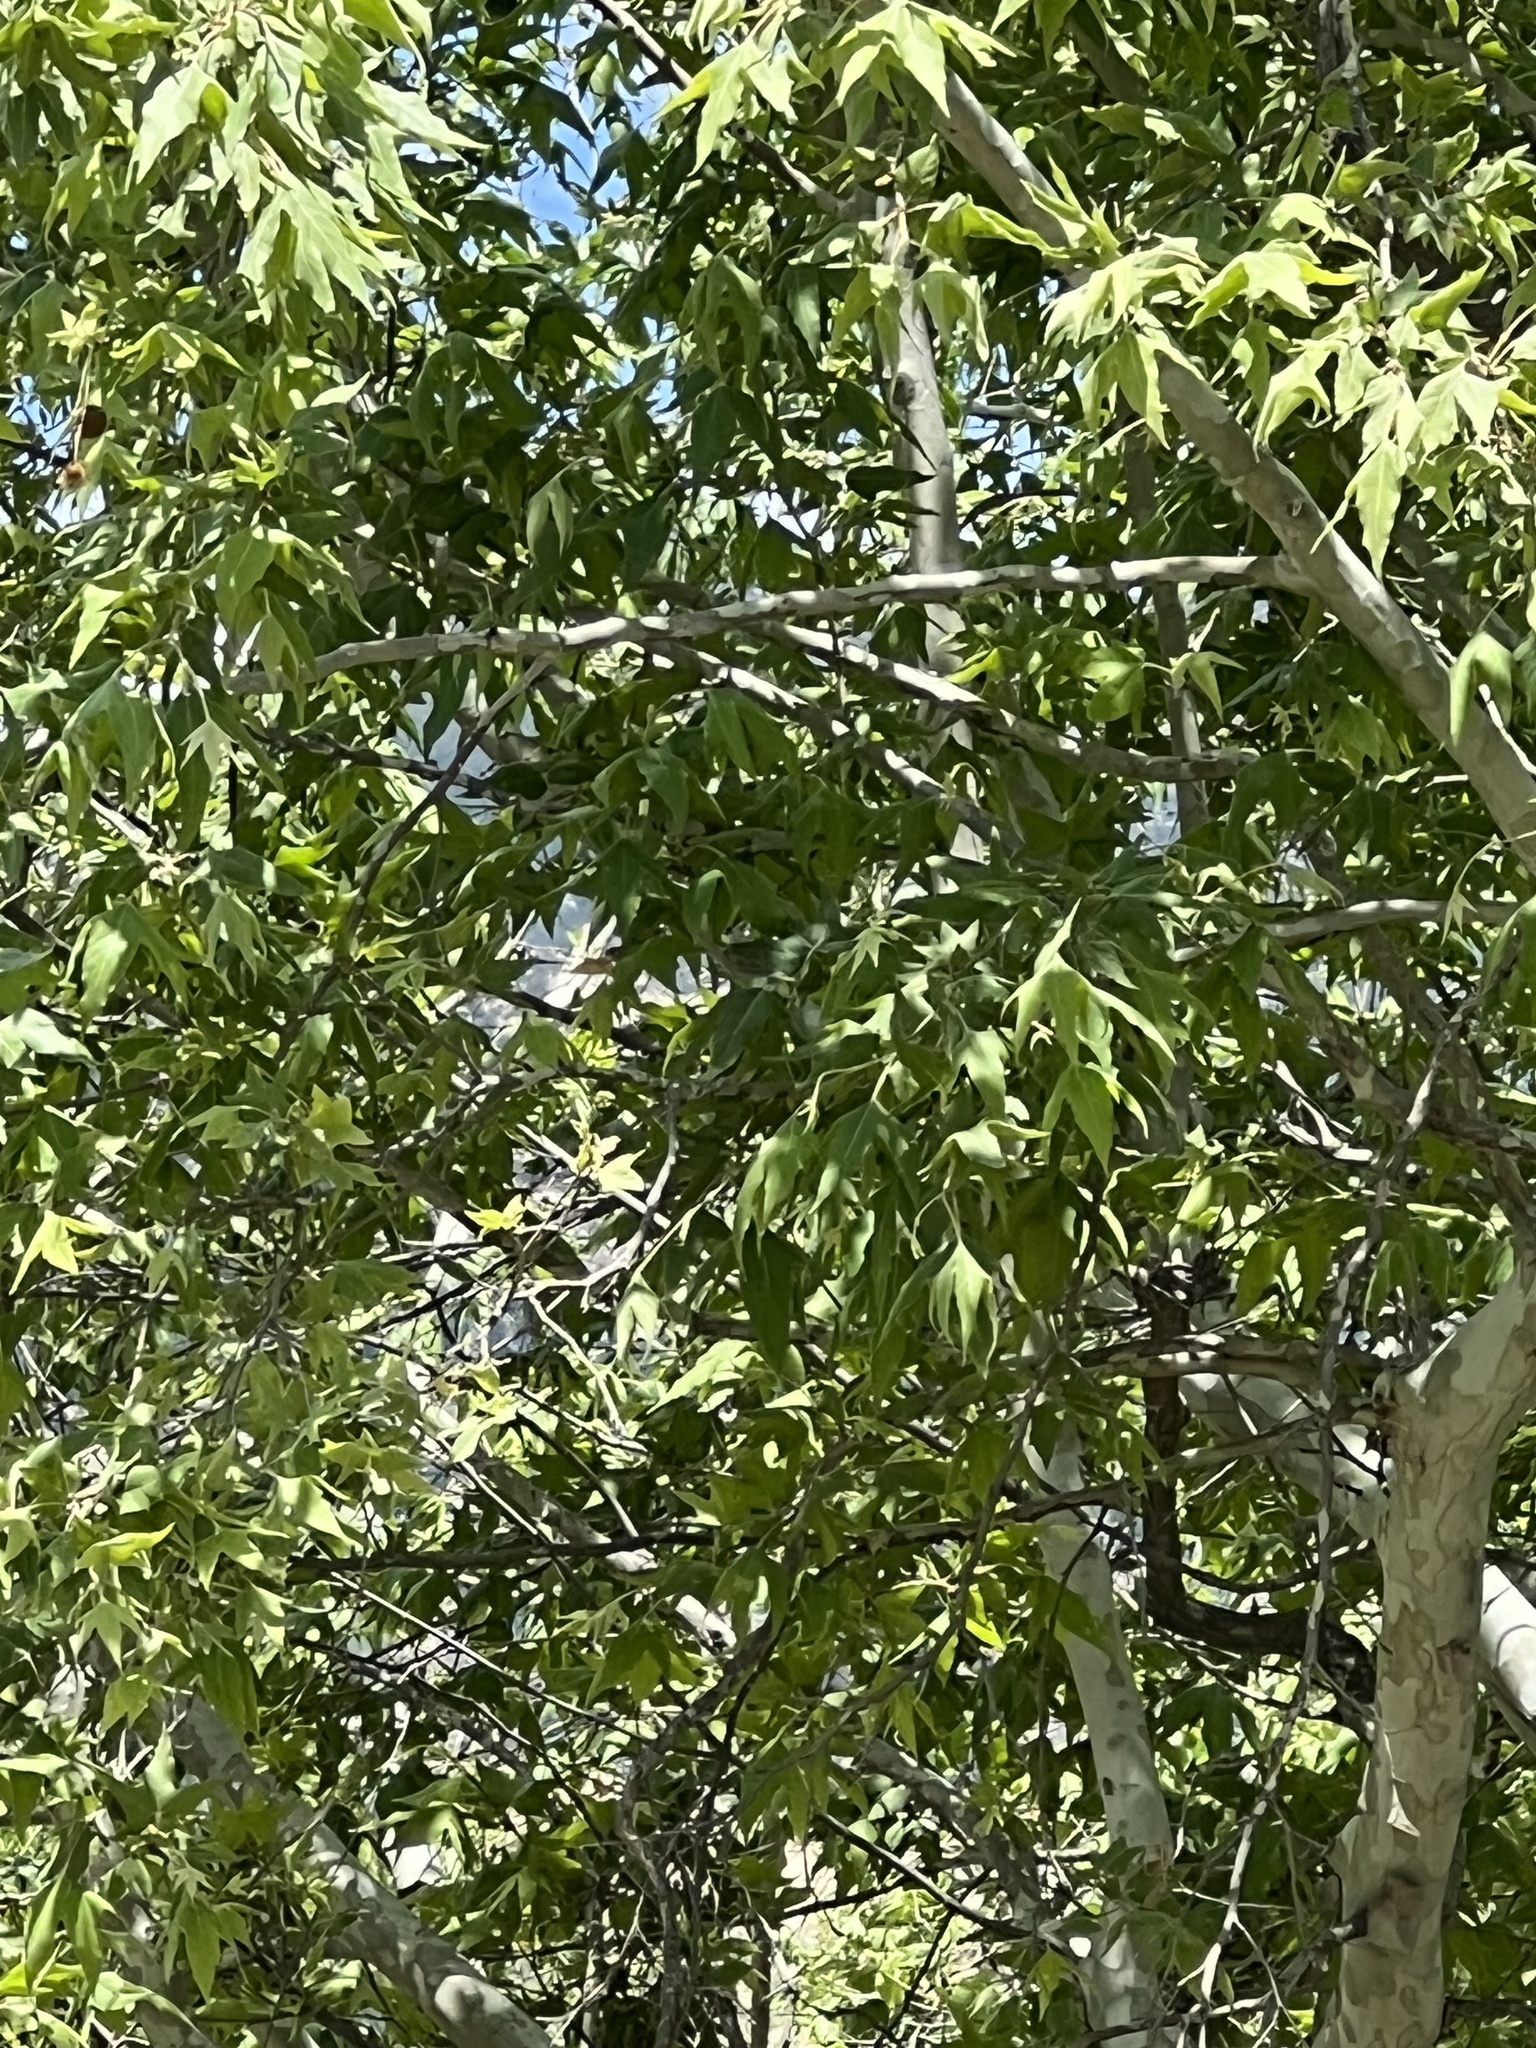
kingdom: Plantae
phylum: Tracheophyta
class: Magnoliopsida
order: Proteales
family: Platanaceae
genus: Platanus
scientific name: Platanus wrightii
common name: Arizona sycamore
